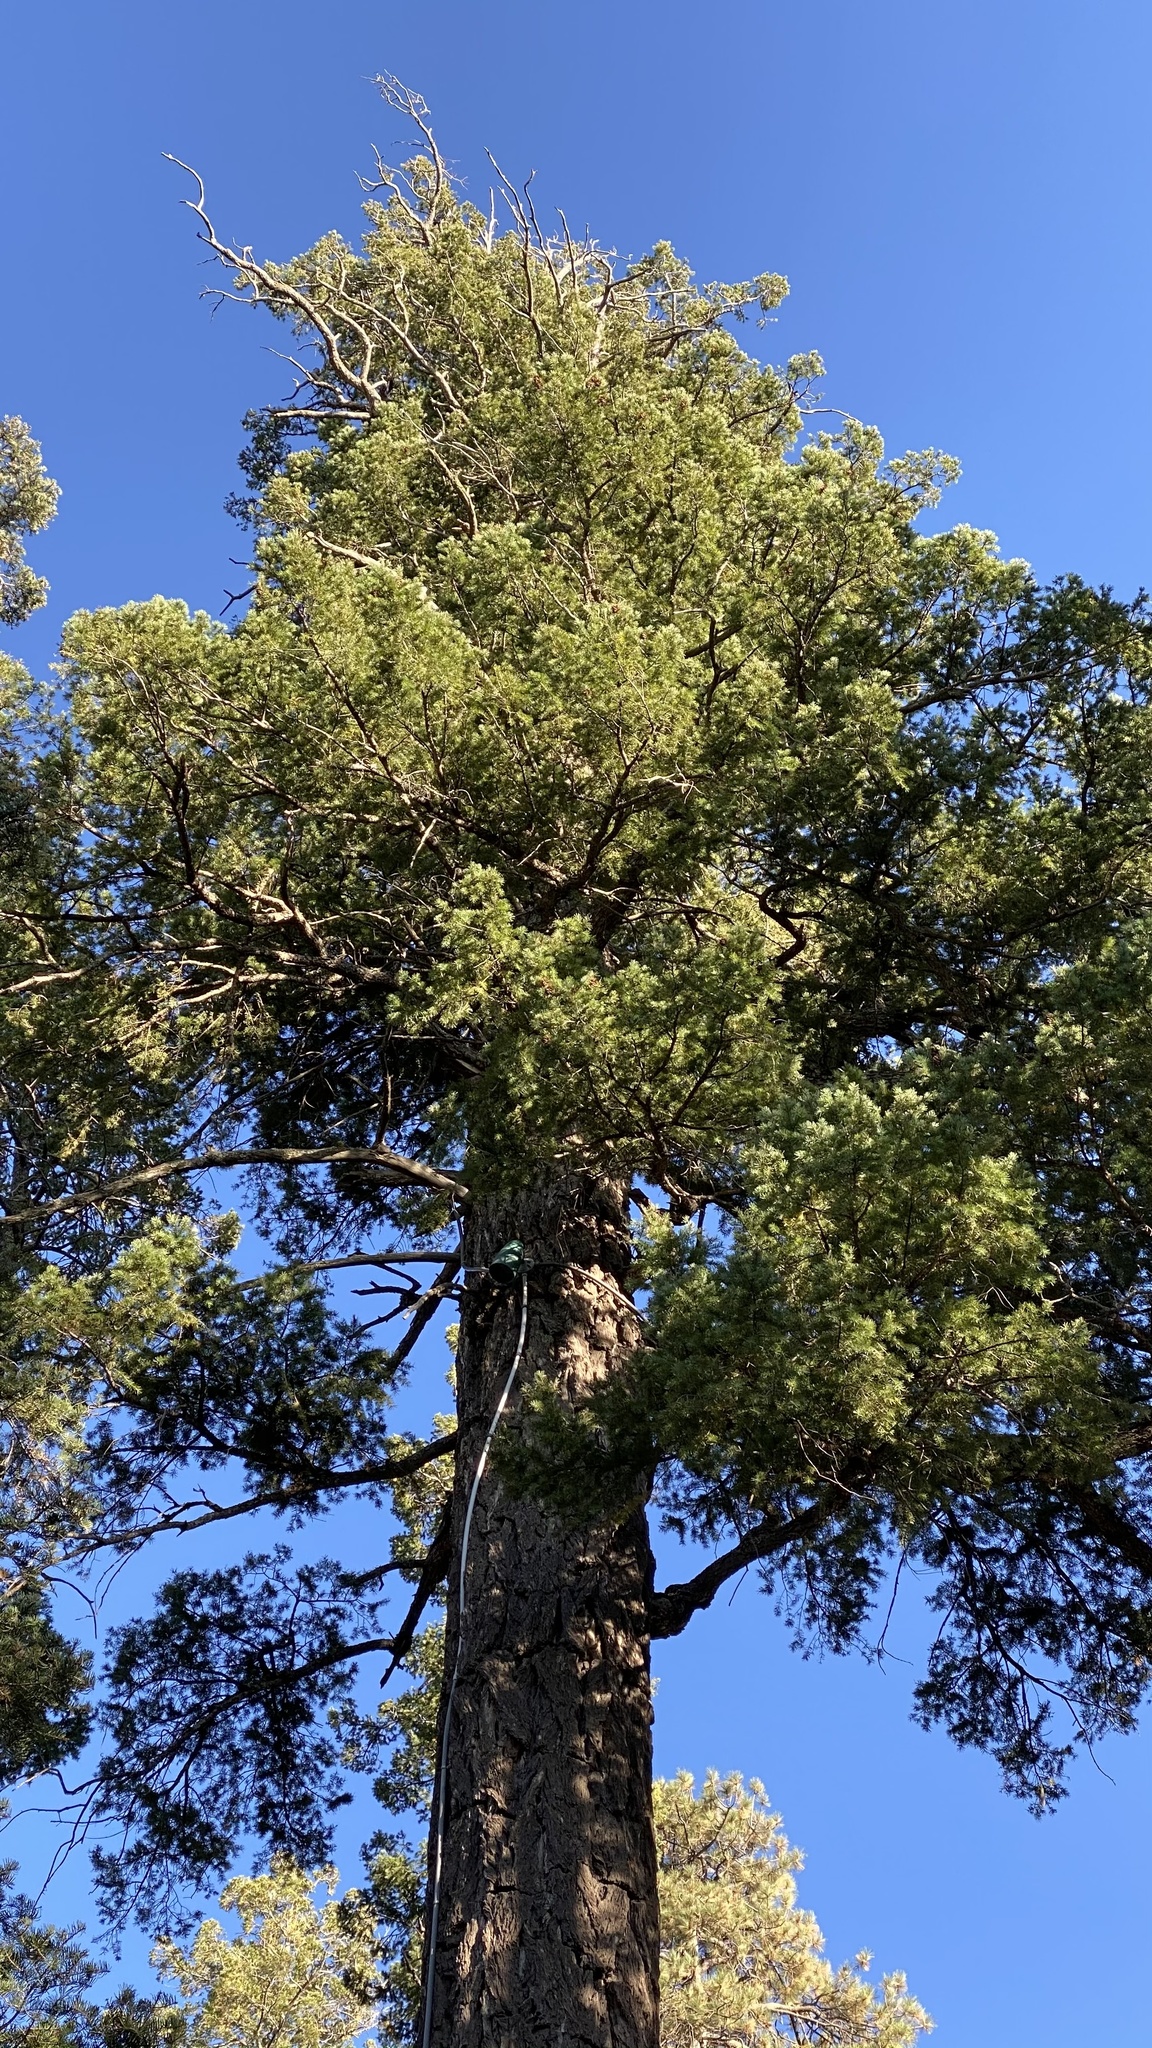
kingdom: Plantae
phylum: Tracheophyta
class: Pinopsida
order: Pinales
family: Pinaceae
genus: Pseudotsuga
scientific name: Pseudotsuga menziesii
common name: Douglas fir
